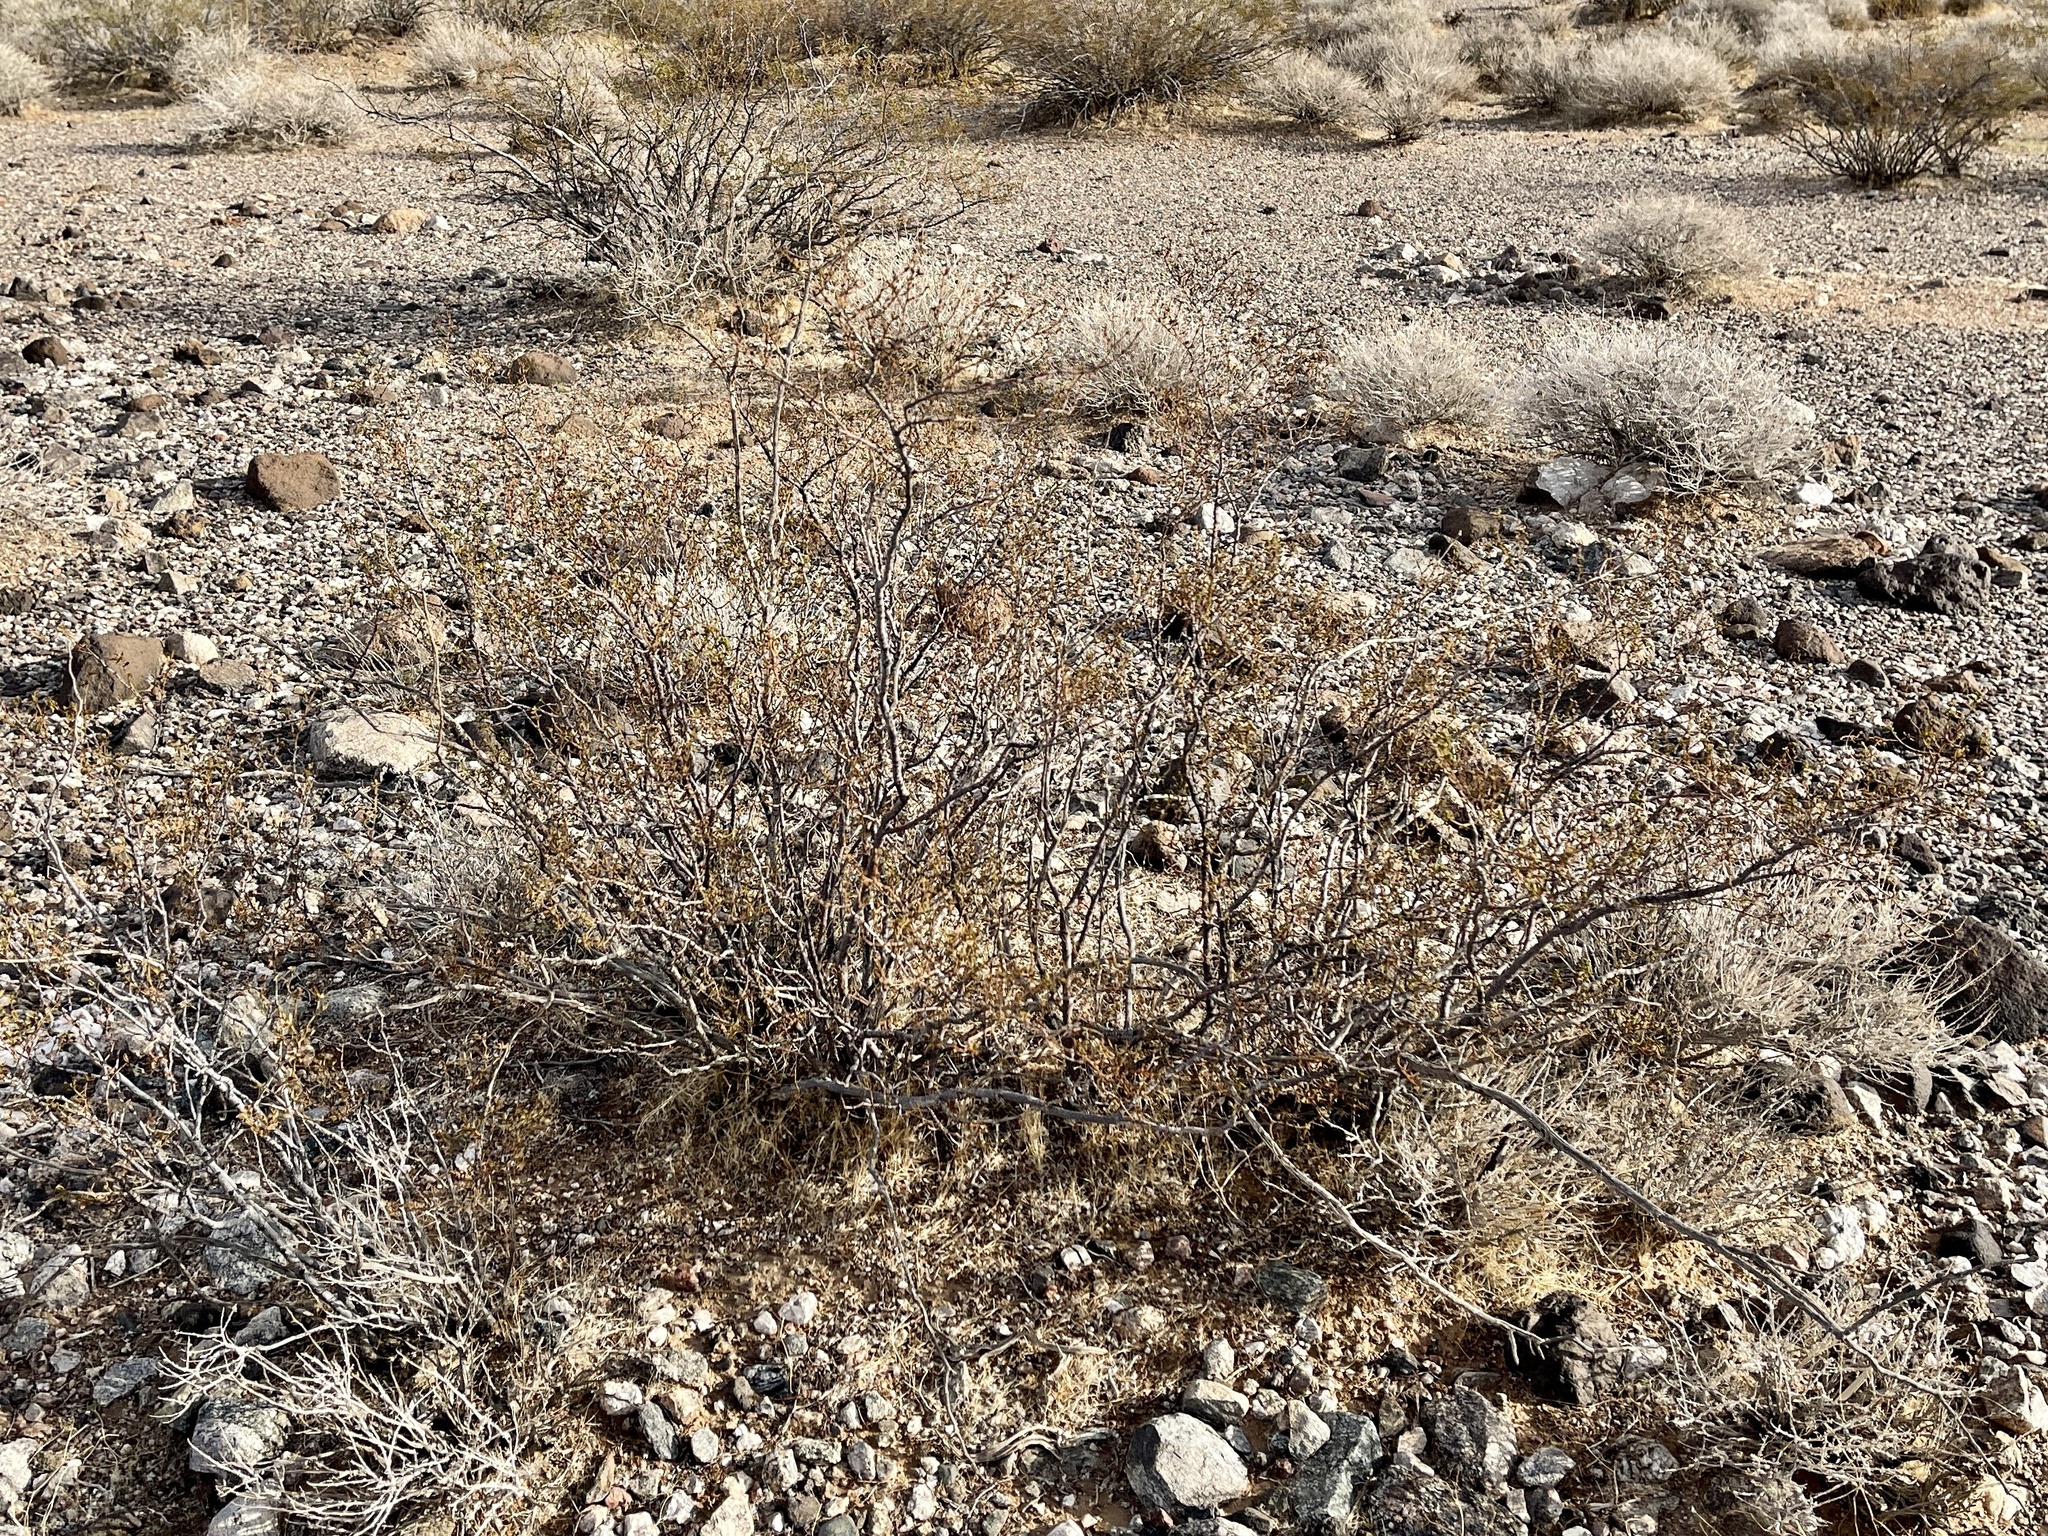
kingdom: Plantae
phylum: Tracheophyta
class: Magnoliopsida
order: Zygophyllales
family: Zygophyllaceae
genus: Larrea
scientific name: Larrea tridentata
